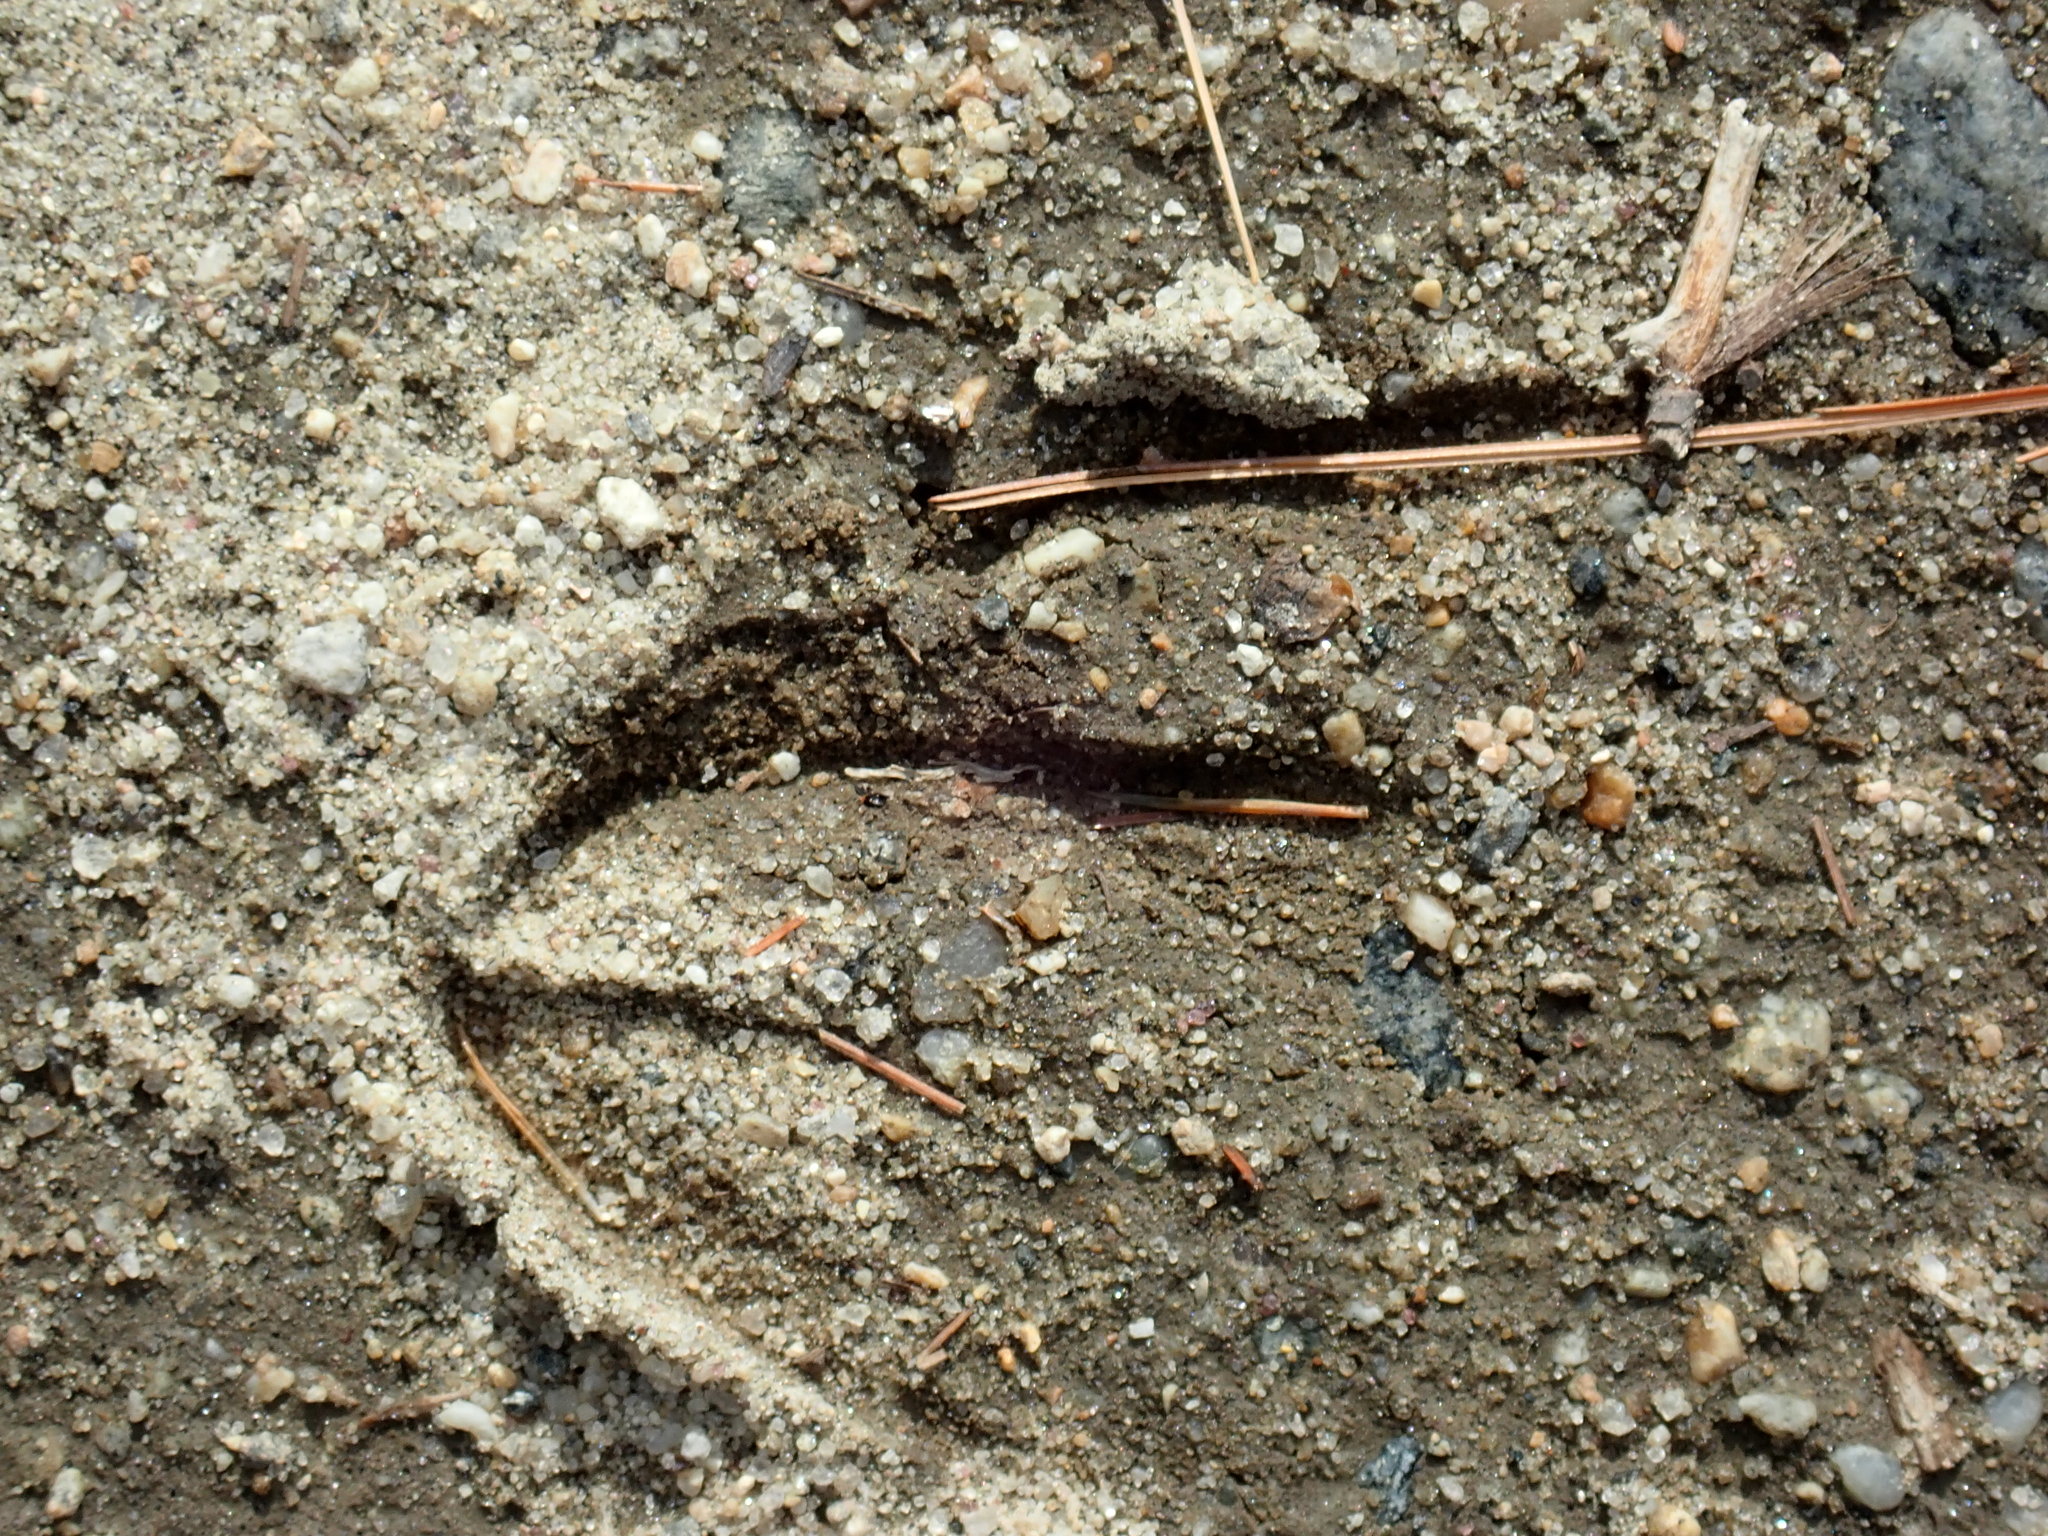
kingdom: Animalia
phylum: Chordata
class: Mammalia
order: Artiodactyla
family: Cervidae
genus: Odocoileus
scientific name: Odocoileus virginianus
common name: White-tailed deer
